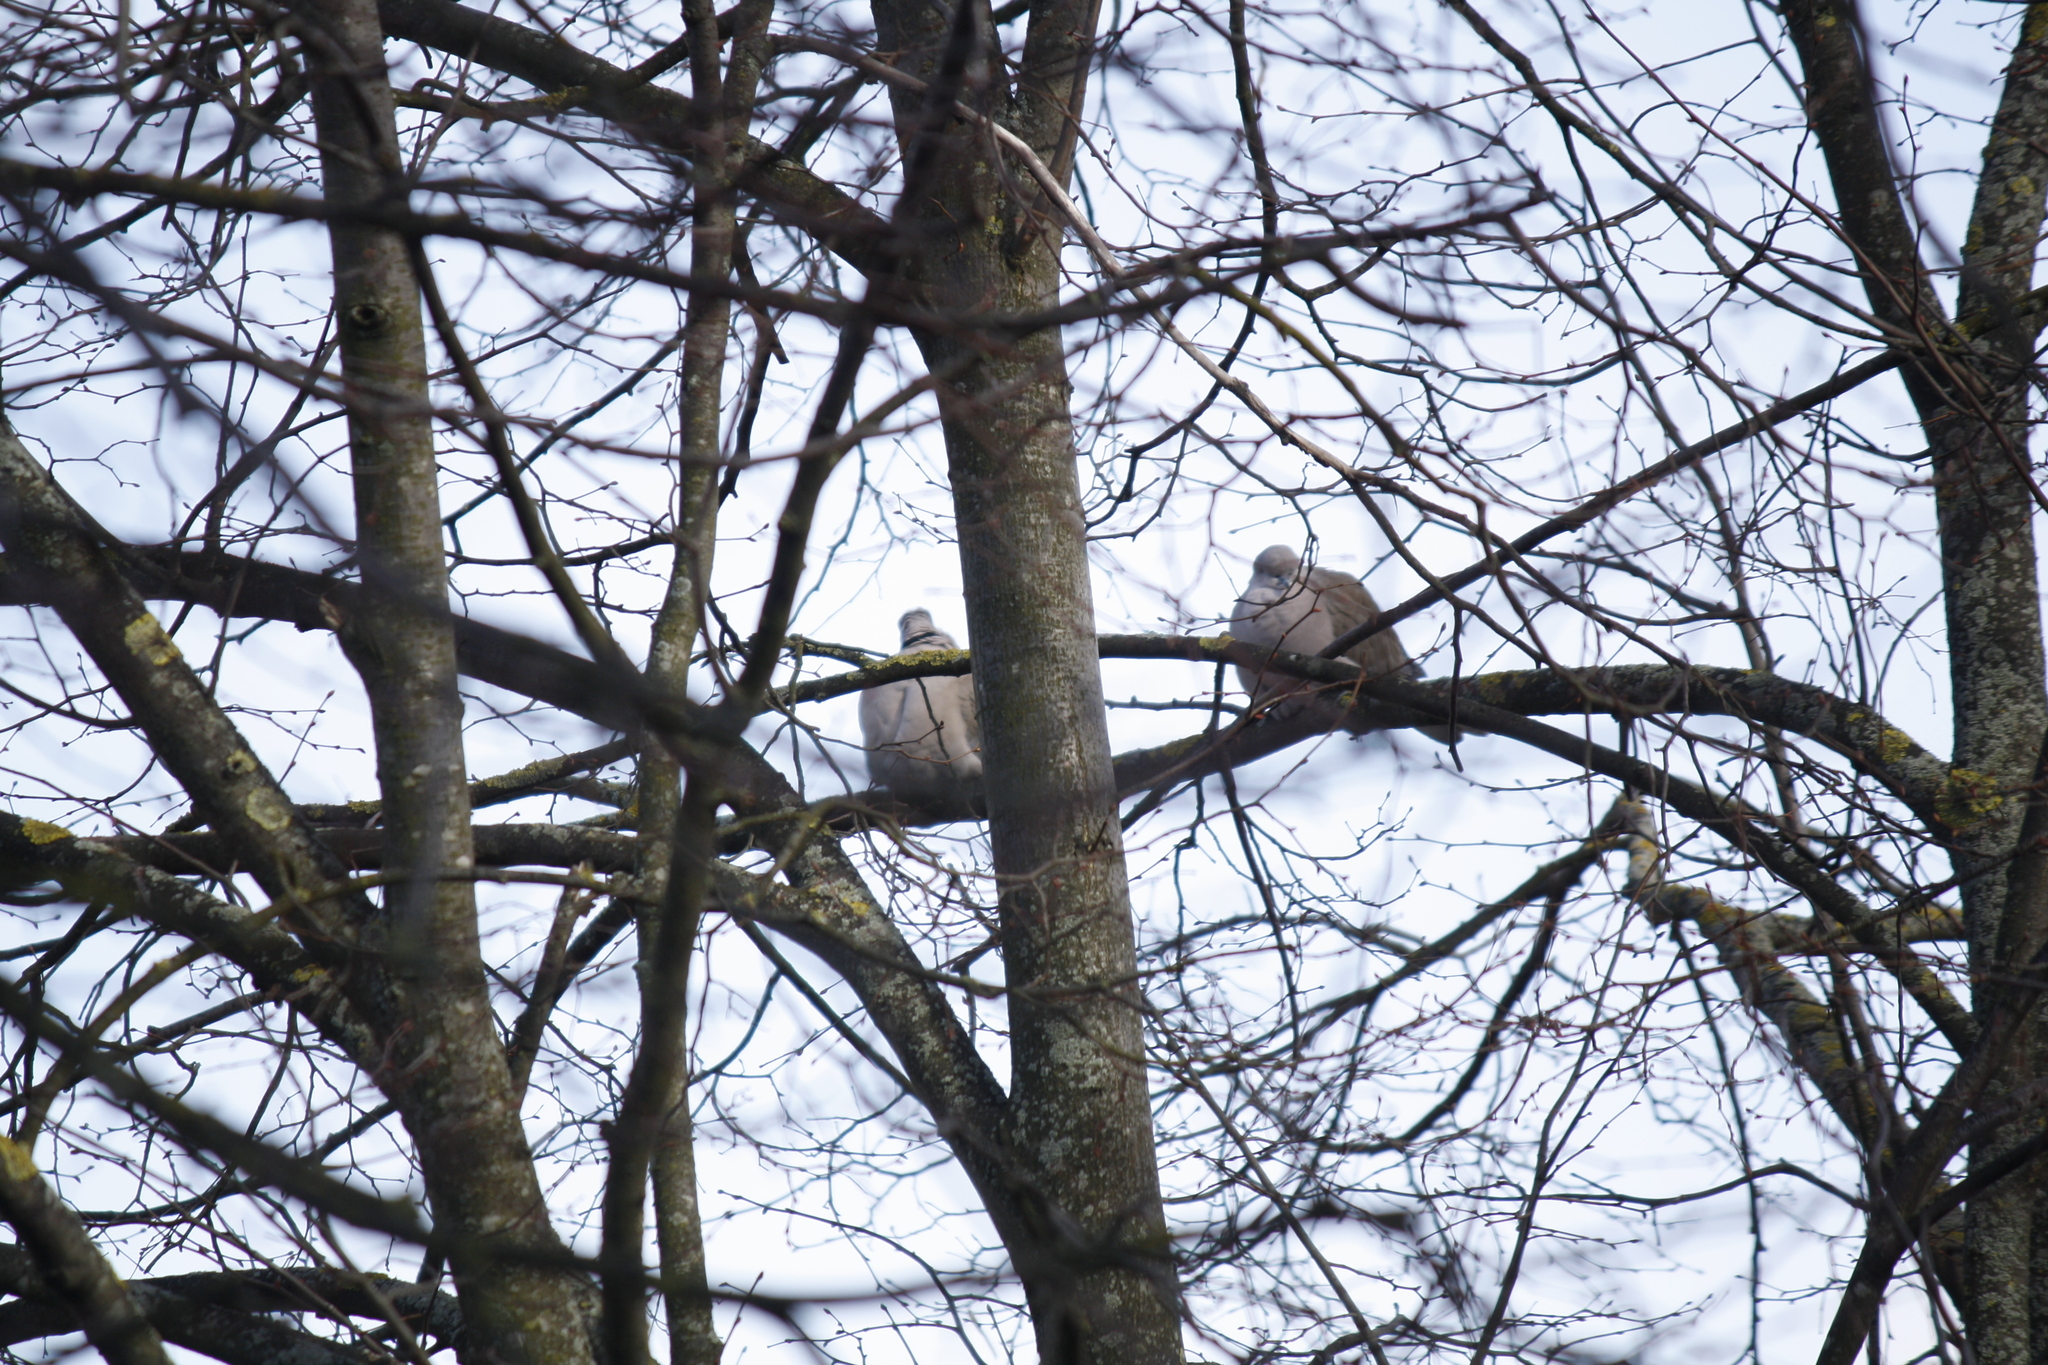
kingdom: Animalia
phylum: Chordata
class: Aves
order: Columbiformes
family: Columbidae
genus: Streptopelia
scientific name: Streptopelia decaocto
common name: Eurasian collared dove
